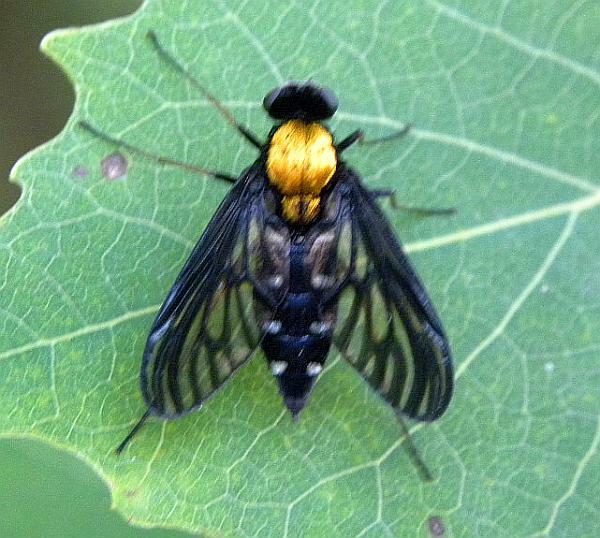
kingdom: Animalia
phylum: Arthropoda
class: Insecta
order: Diptera
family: Rhagionidae
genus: Chrysopilus
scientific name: Chrysopilus thoracicus
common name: Golden-backed snipe fly
